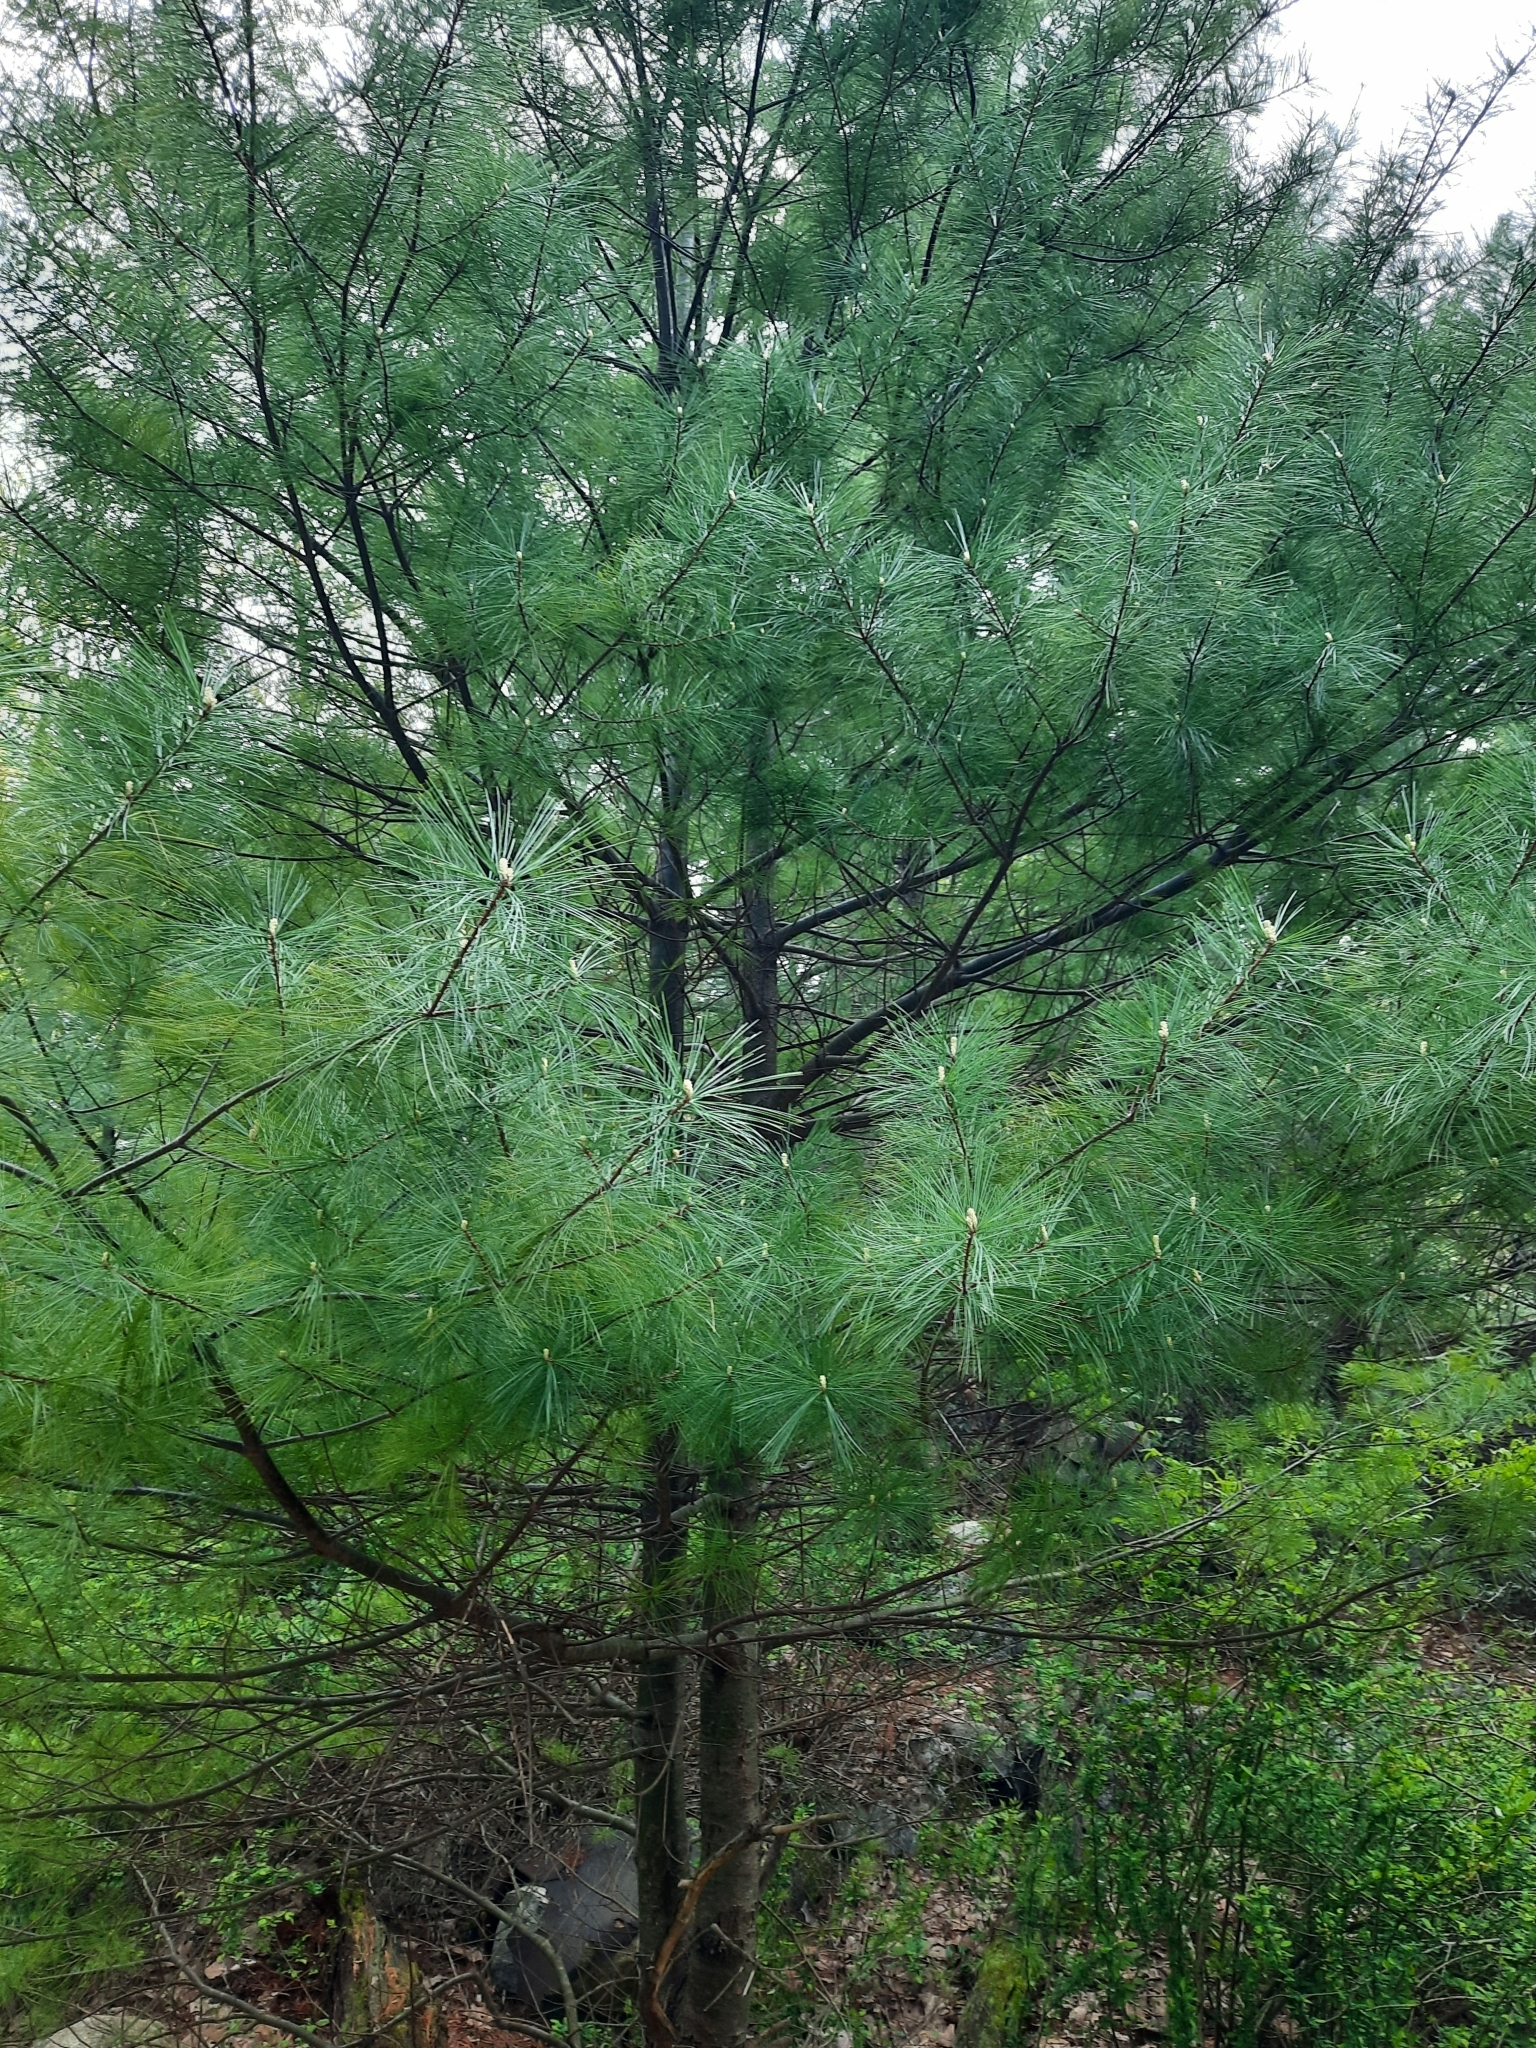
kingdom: Plantae
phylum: Tracheophyta
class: Pinopsida
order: Pinales
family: Pinaceae
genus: Pinus
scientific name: Pinus strobus
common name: Weymouth pine
